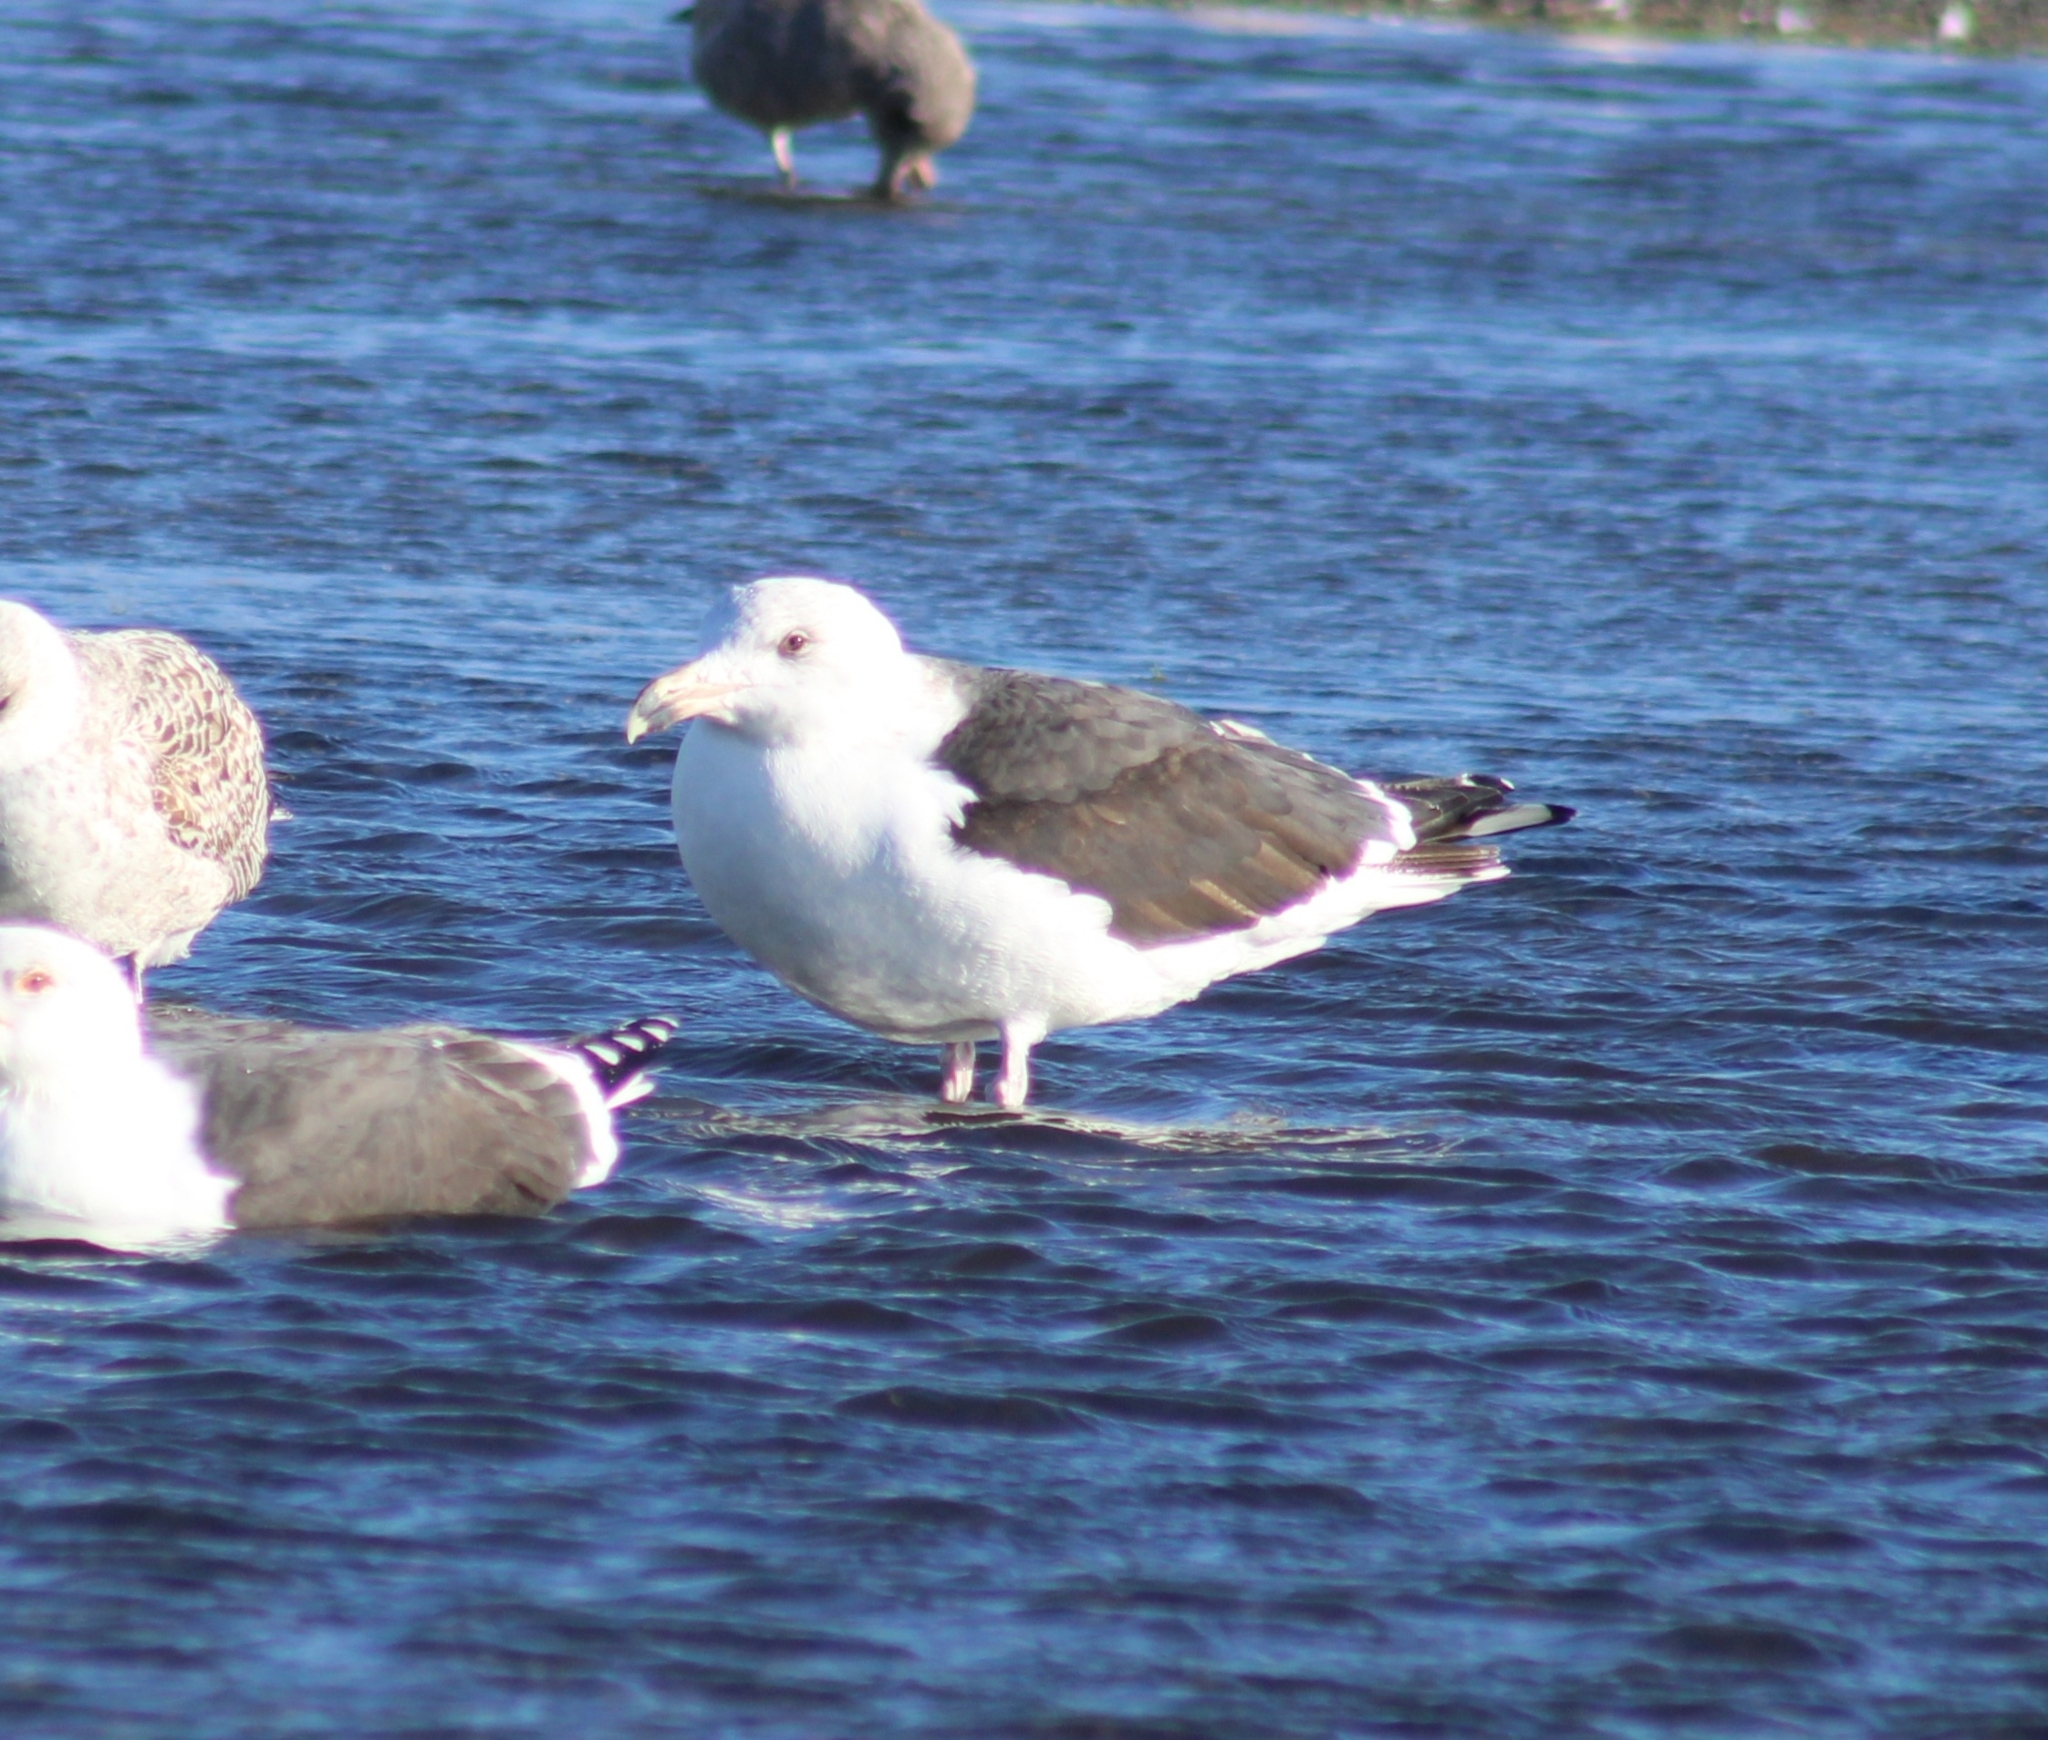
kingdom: Animalia
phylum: Chordata
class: Aves
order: Charadriiformes
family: Laridae
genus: Larus
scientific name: Larus marinus
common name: Great black-backed gull
